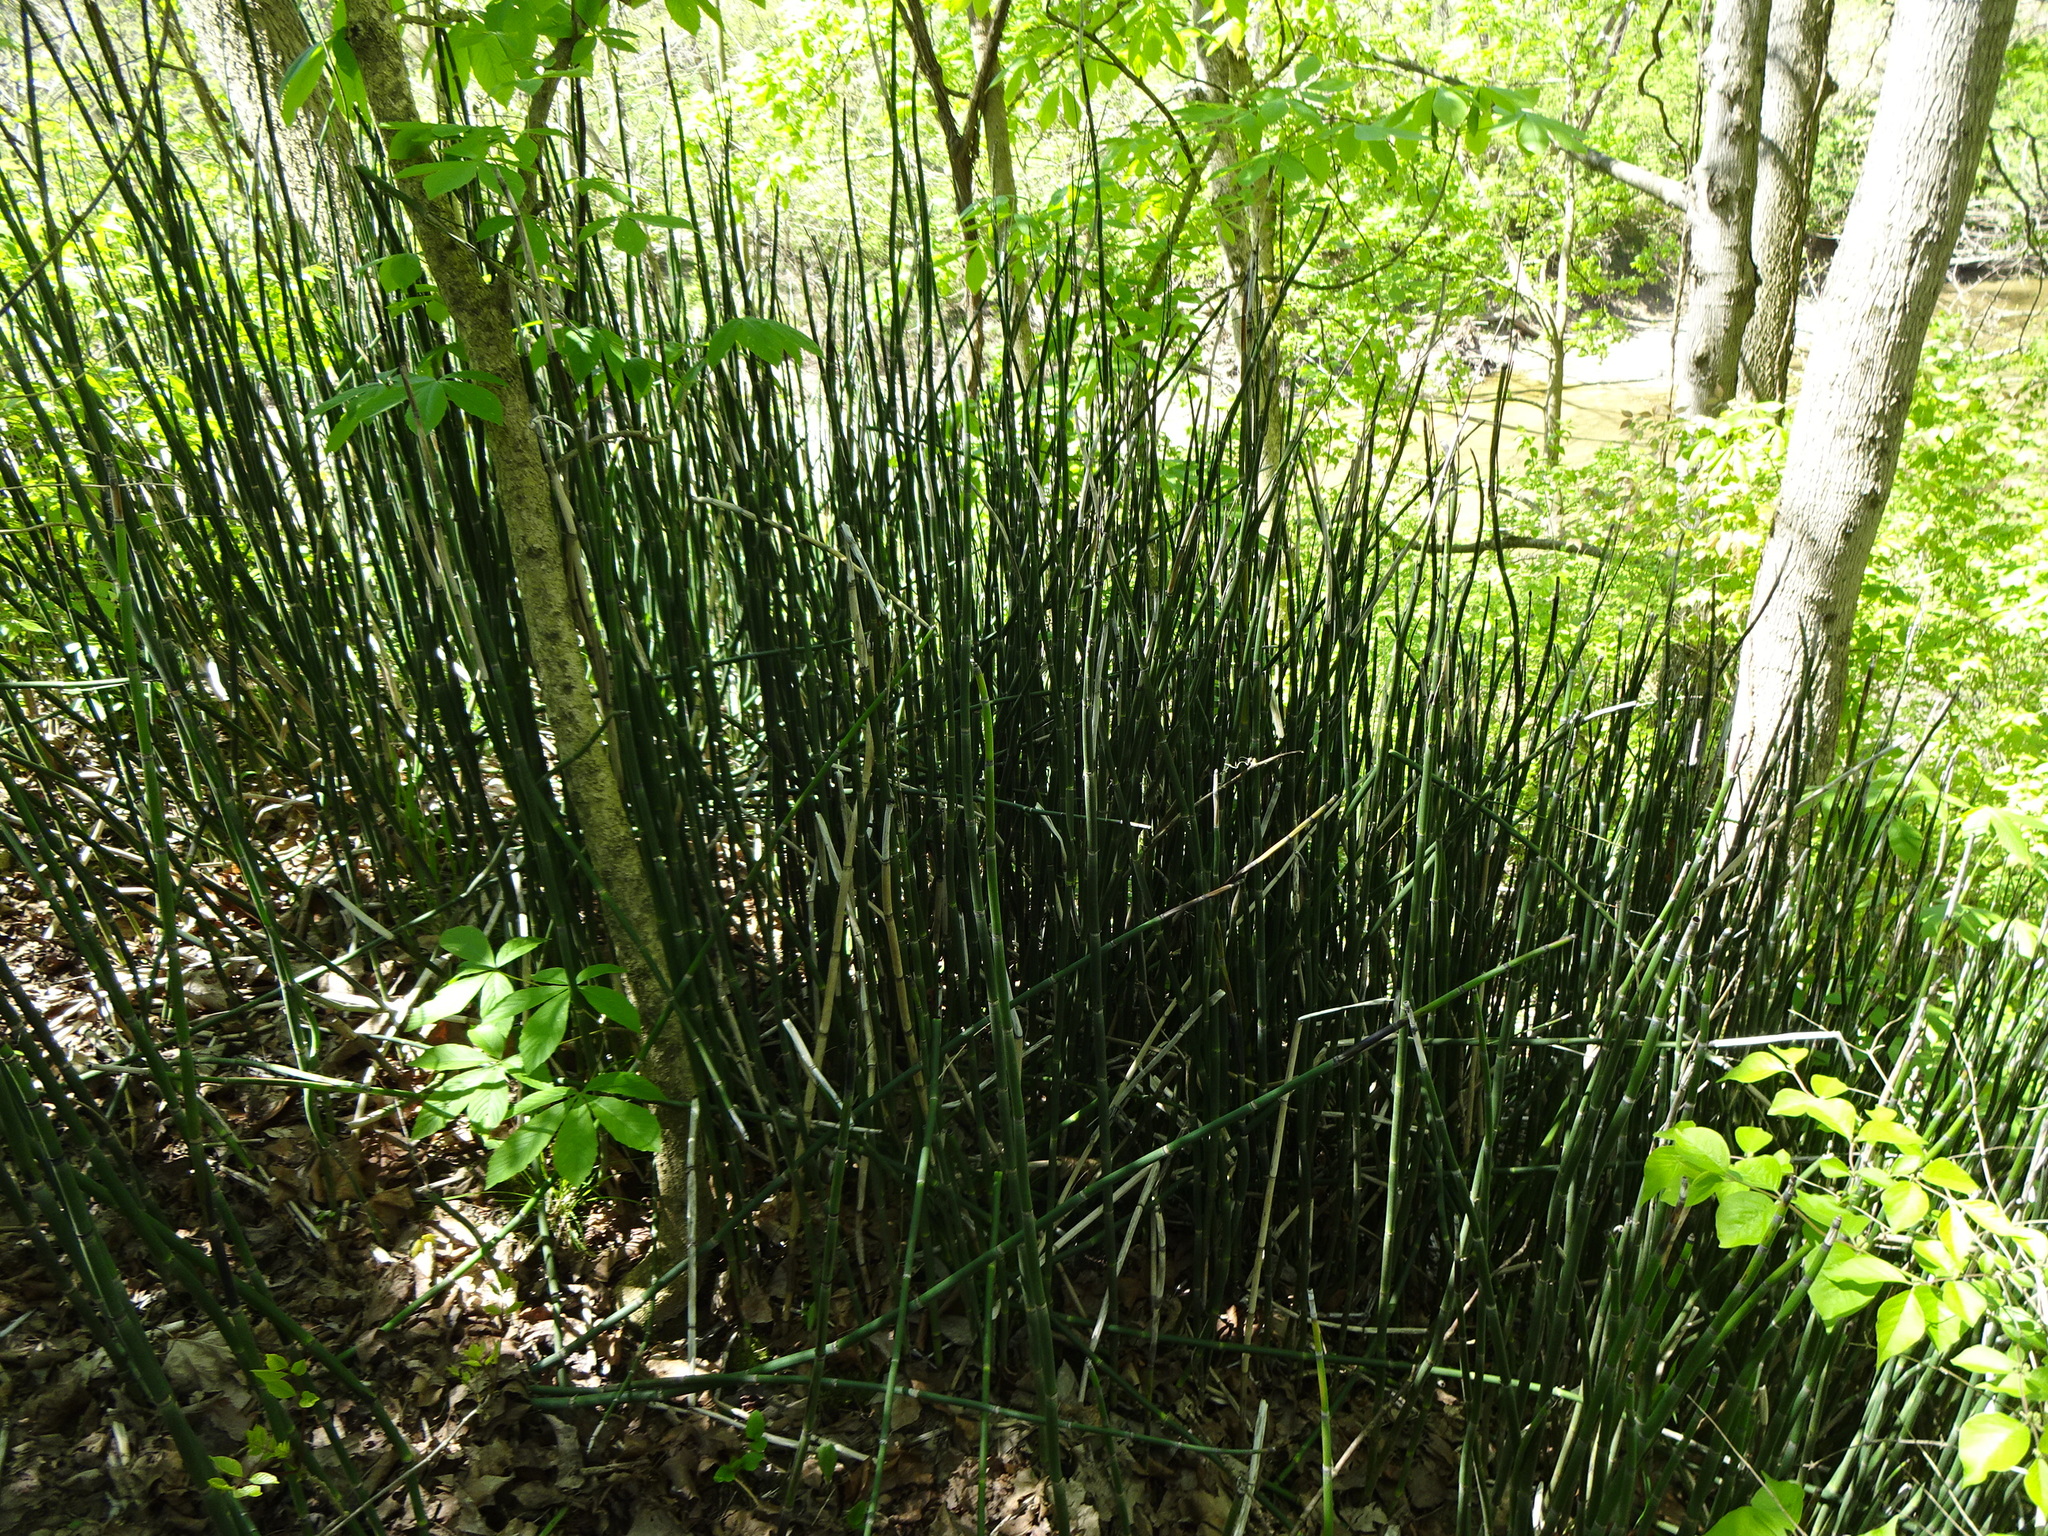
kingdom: Fungi
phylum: Ascomycota
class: Leotiomycetes
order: Helotiales
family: Helotiaceae
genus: Stamnaria
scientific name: Stamnaria americana
